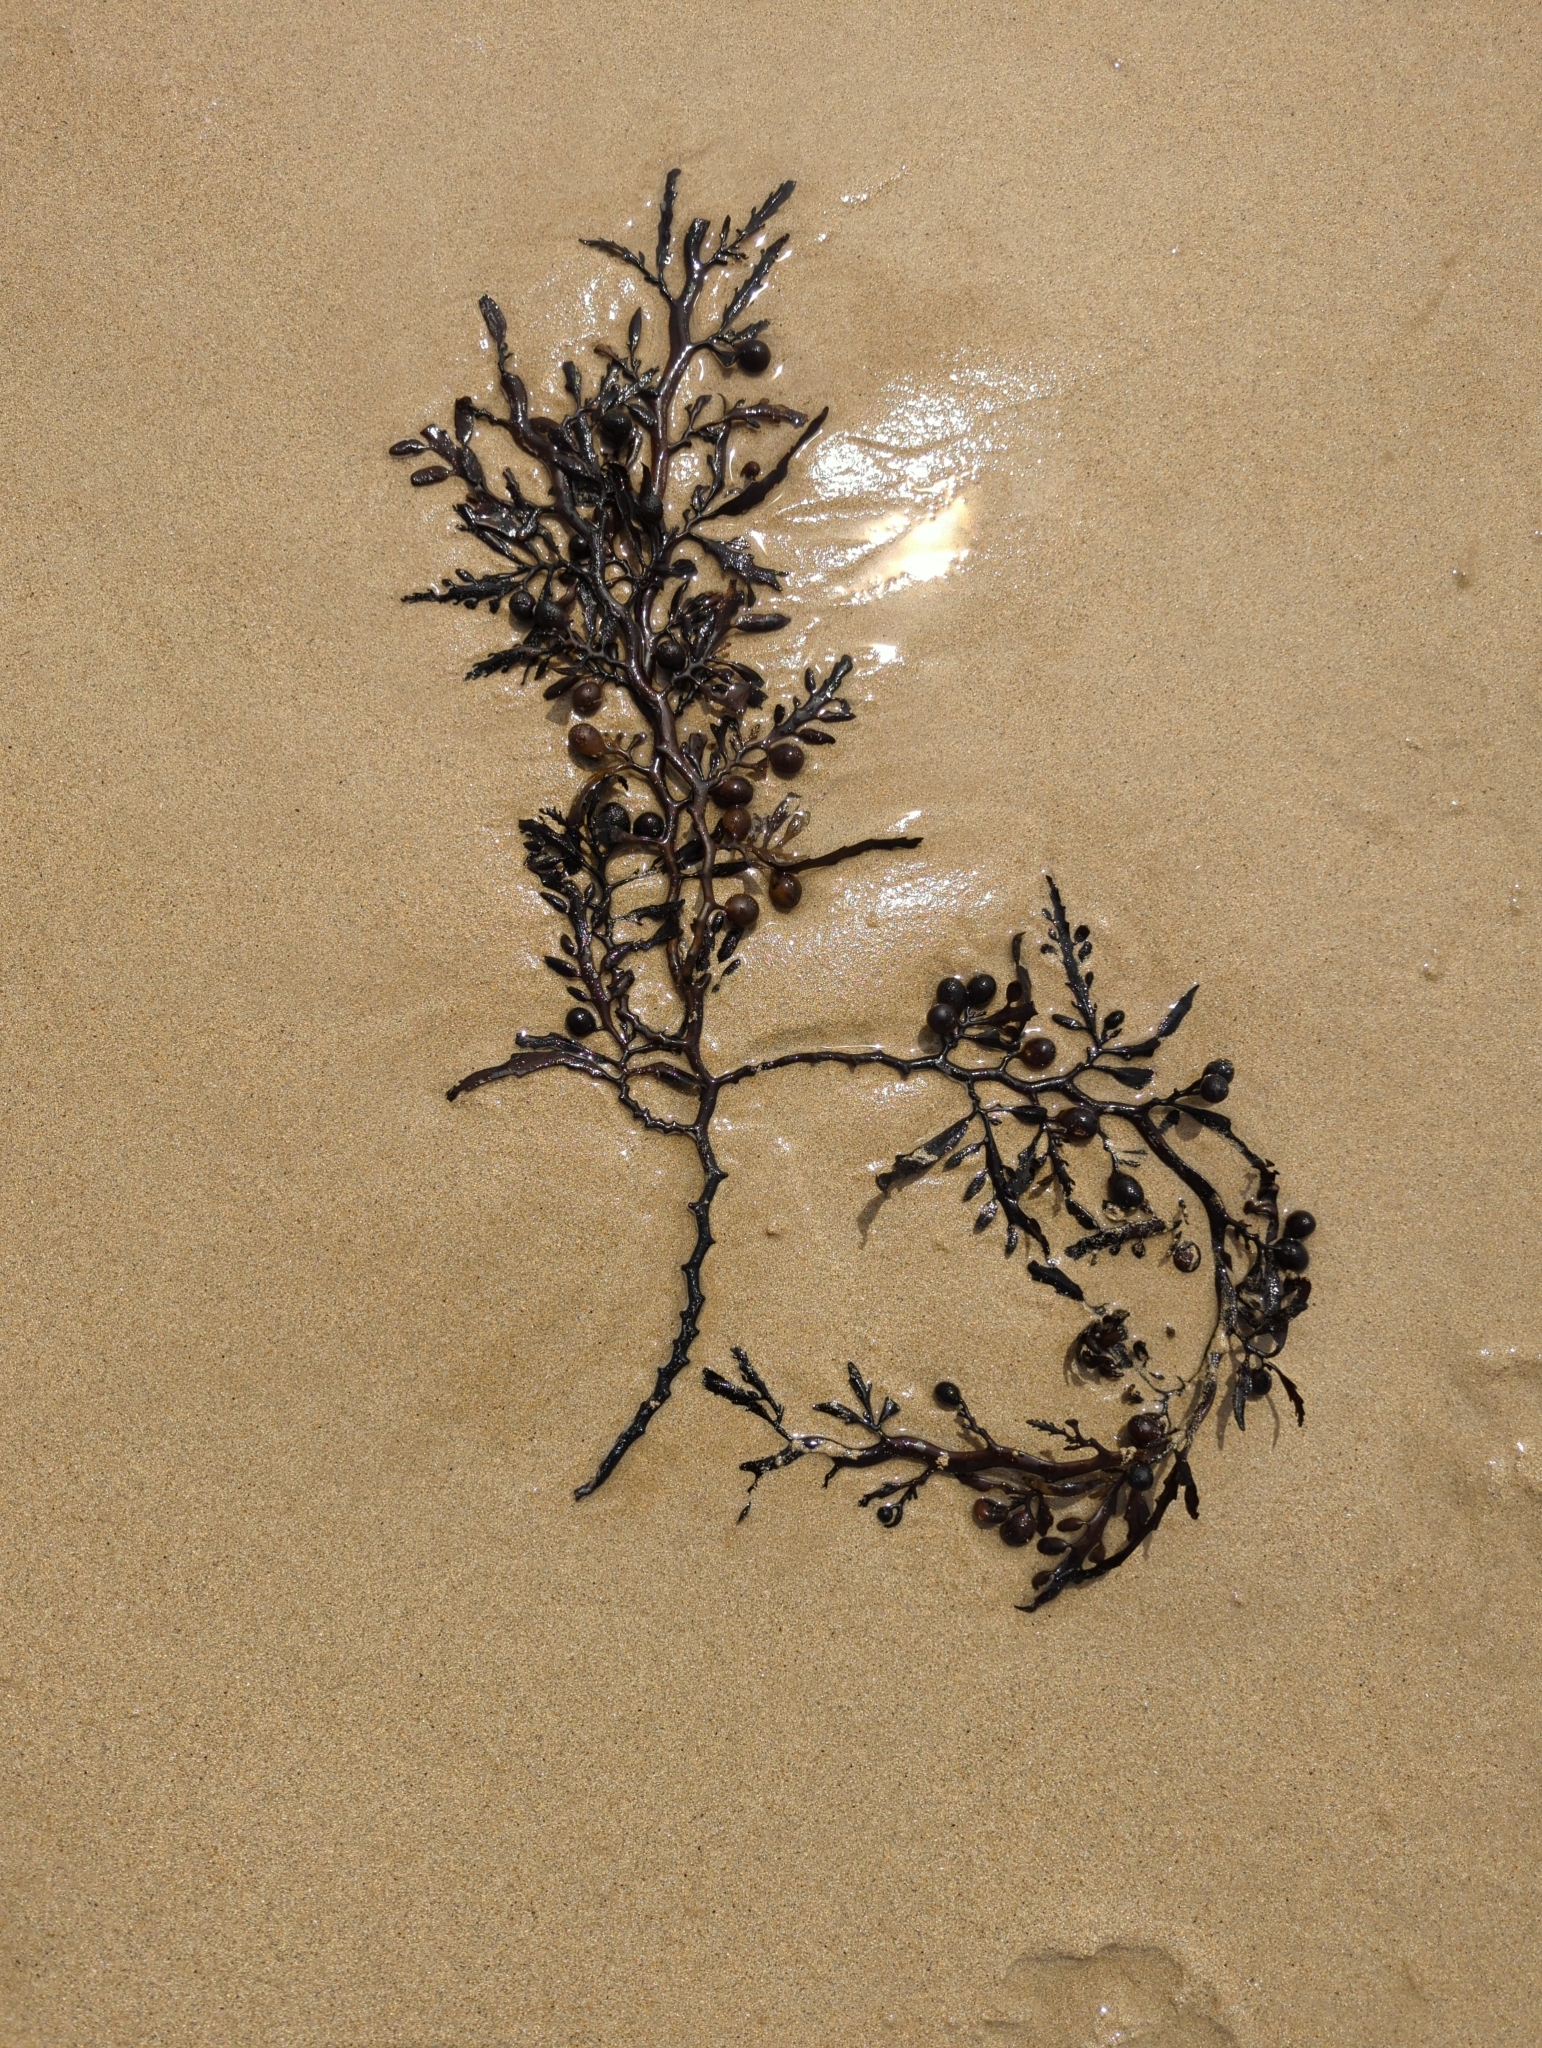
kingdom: Chromista
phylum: Ochrophyta
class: Phaeophyceae
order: Fucales
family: Sargassaceae
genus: Cystophora
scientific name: Cystophora platylobium
